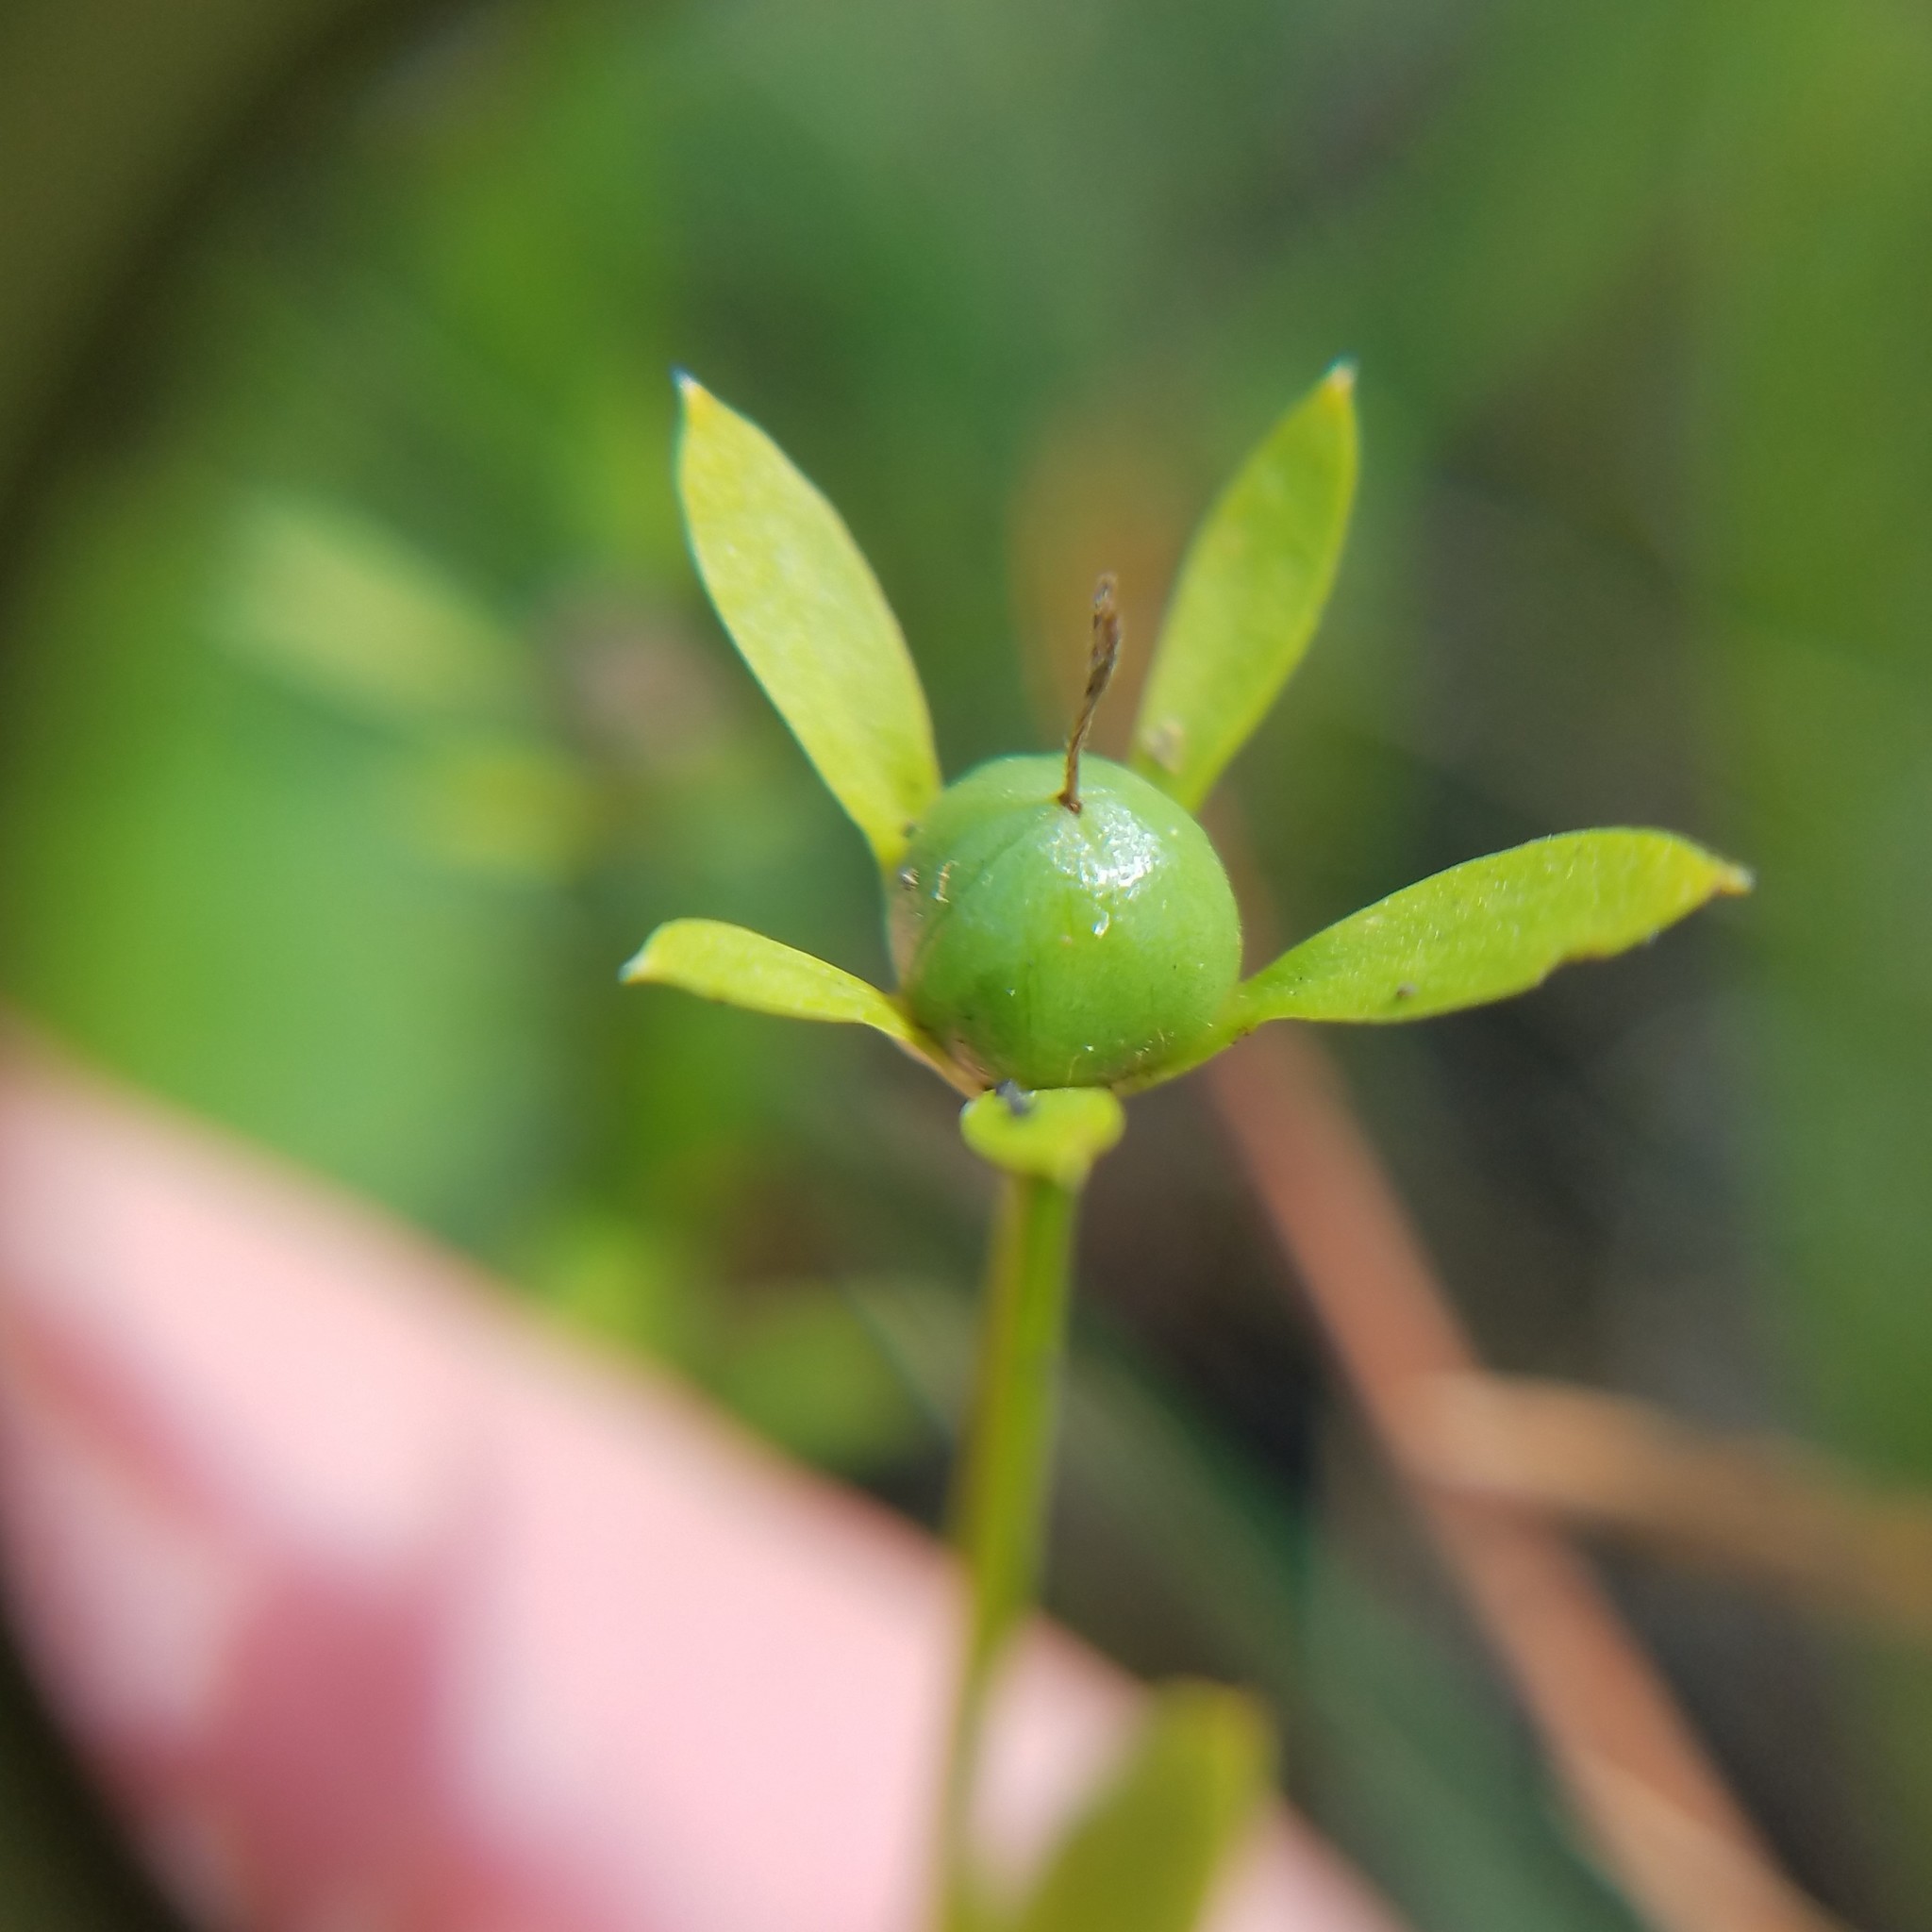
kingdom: Plantae
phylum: Tracheophyta
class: Magnoliopsida
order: Gentianales
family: Gentianaceae
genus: Sabatia
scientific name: Sabatia calycina
